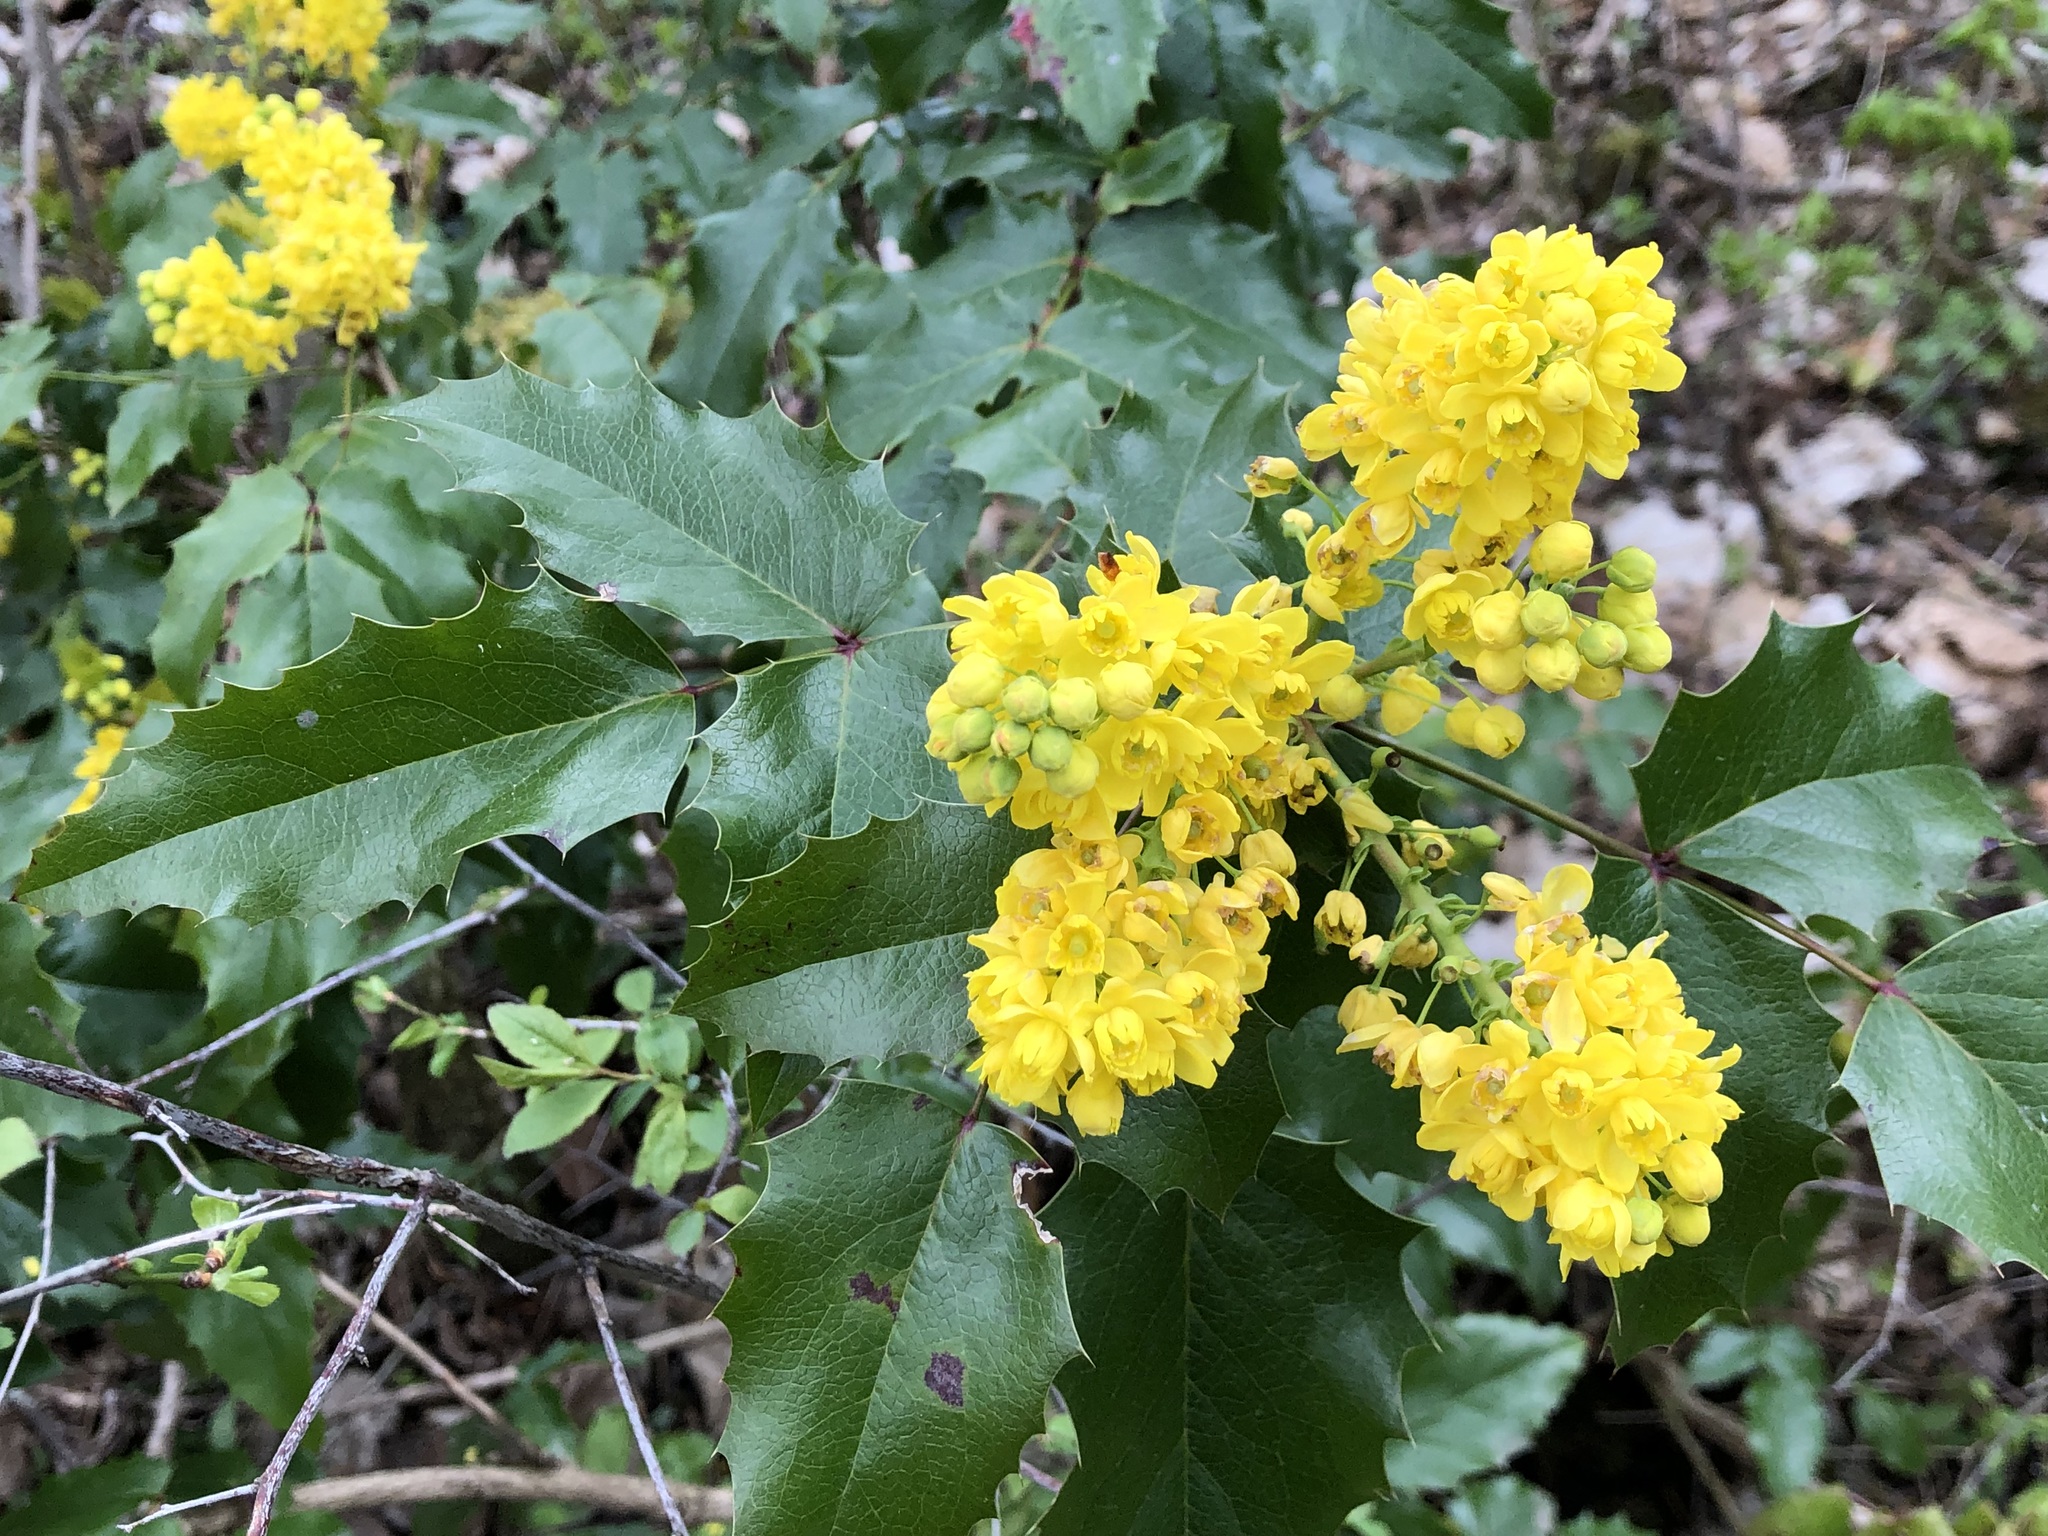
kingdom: Plantae
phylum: Tracheophyta
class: Magnoliopsida
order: Ranunculales
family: Berberidaceae
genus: Mahonia
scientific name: Mahonia aquifolium
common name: Oregon-grape
